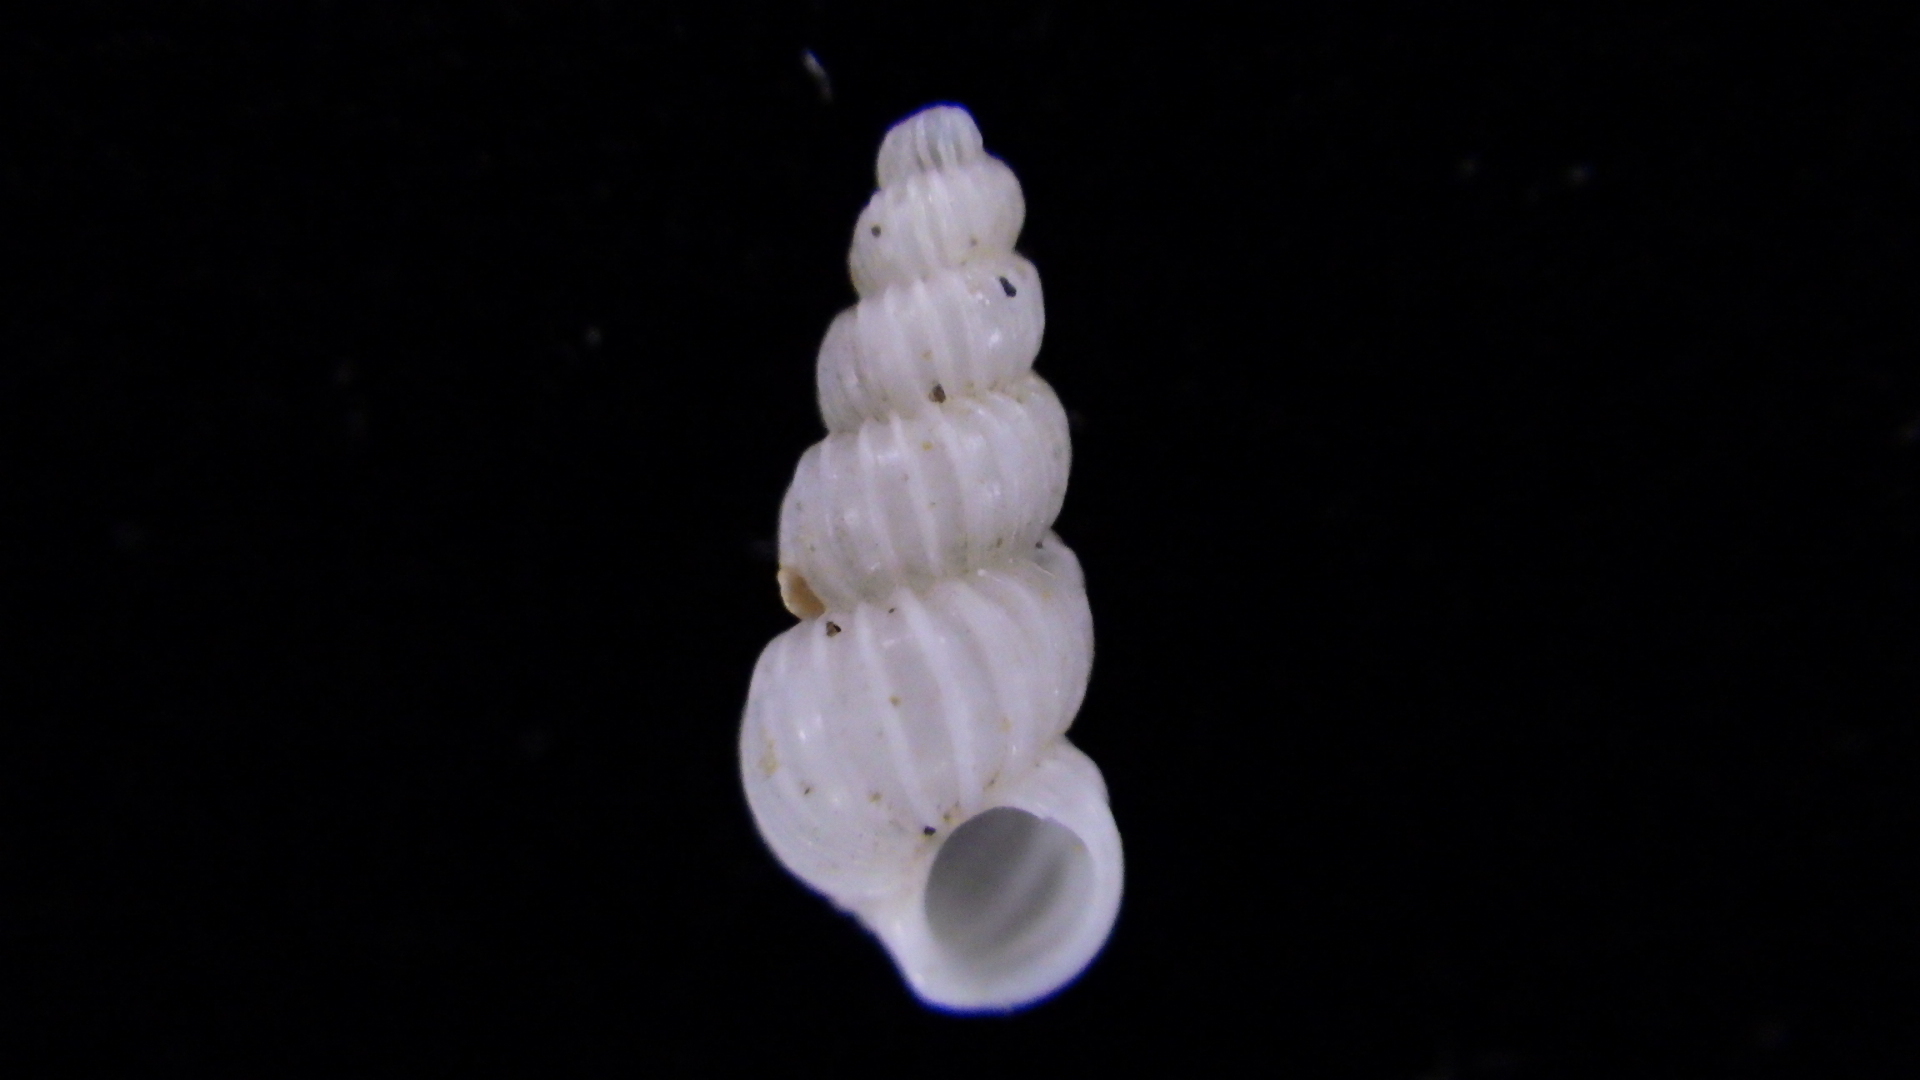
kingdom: Animalia
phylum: Mollusca
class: Gastropoda
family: Epitoniidae
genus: Epitonium
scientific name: Epitonium jukesianum
